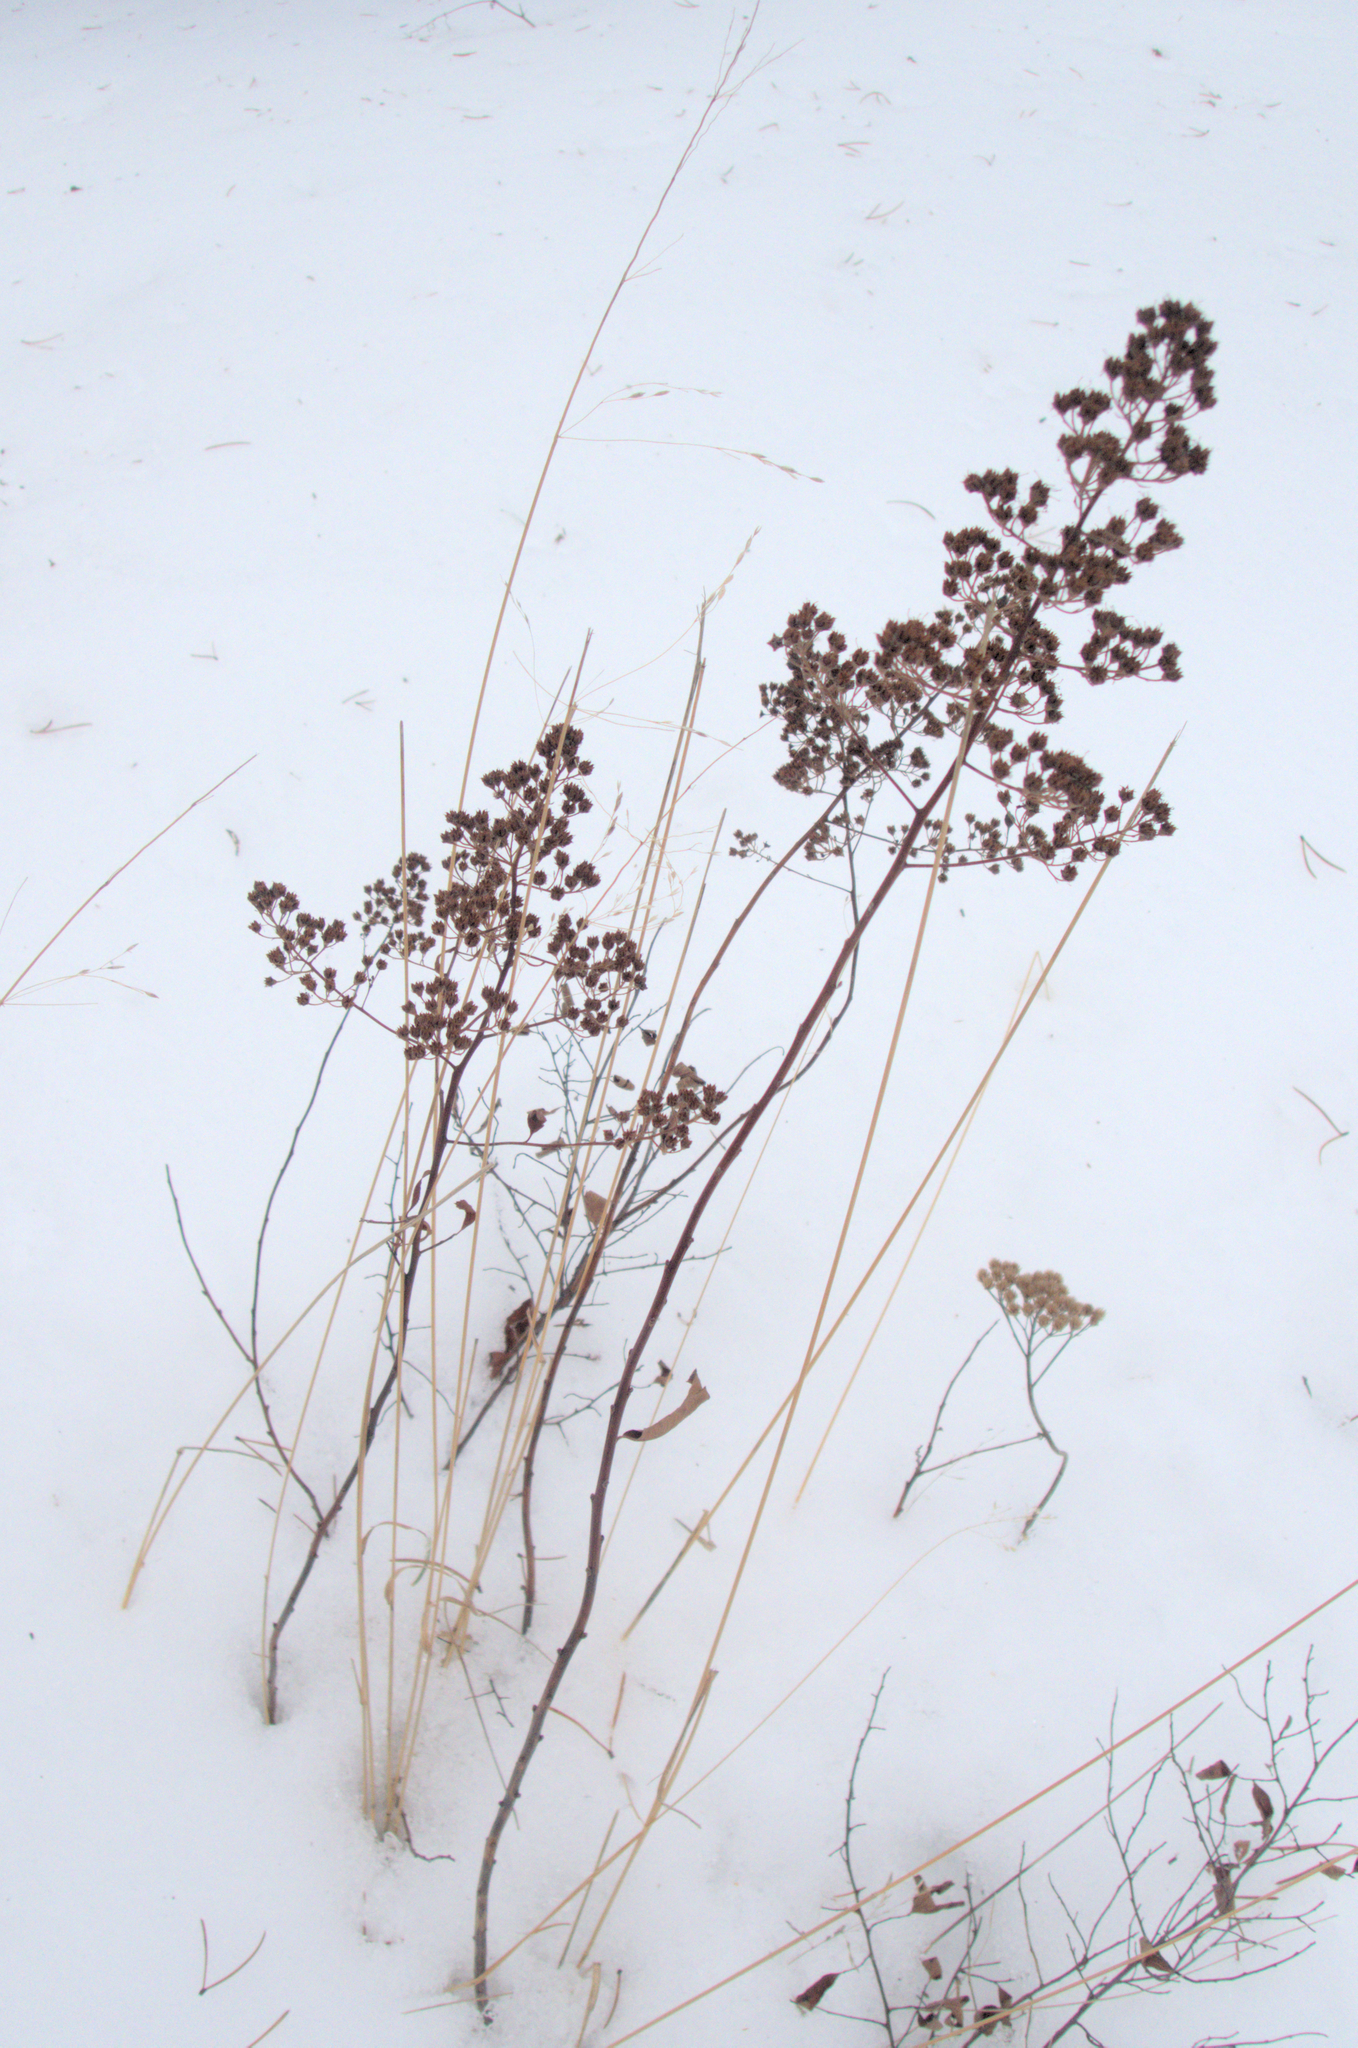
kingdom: Plantae
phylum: Tracheophyta
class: Magnoliopsida
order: Rosales
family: Rosaceae
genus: Spiraea
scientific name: Spiraea alba
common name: Pale bridewort
